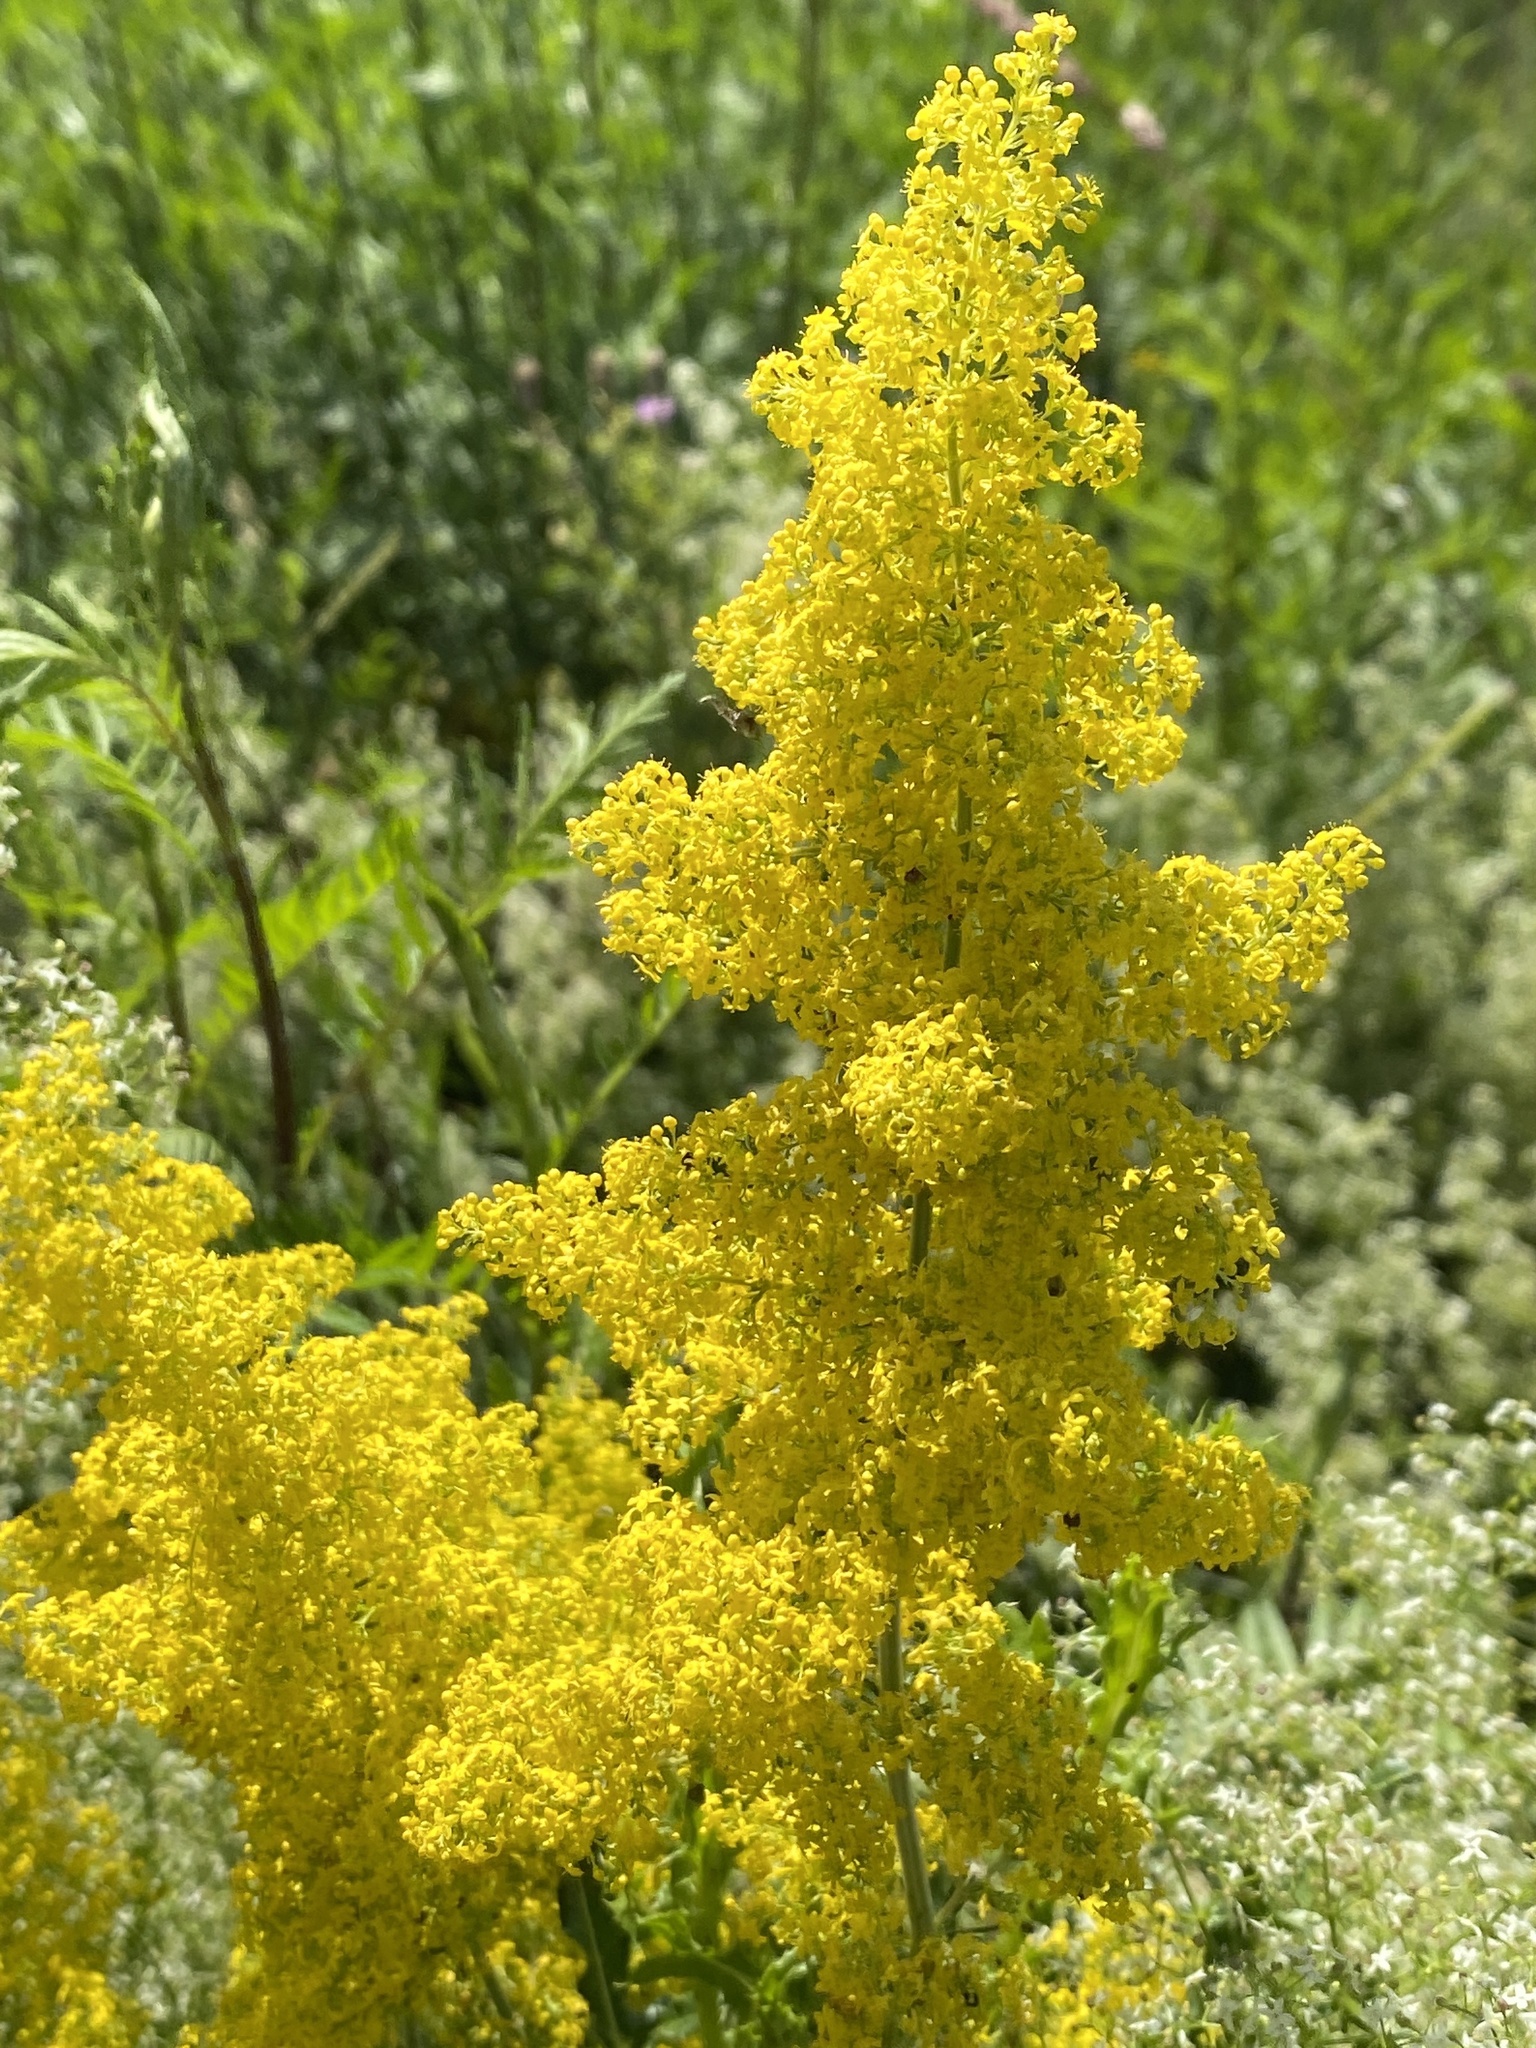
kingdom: Plantae
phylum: Tracheophyta
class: Magnoliopsida
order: Gentianales
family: Rubiaceae
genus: Galium
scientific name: Galium verum
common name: Lady's bedstraw
